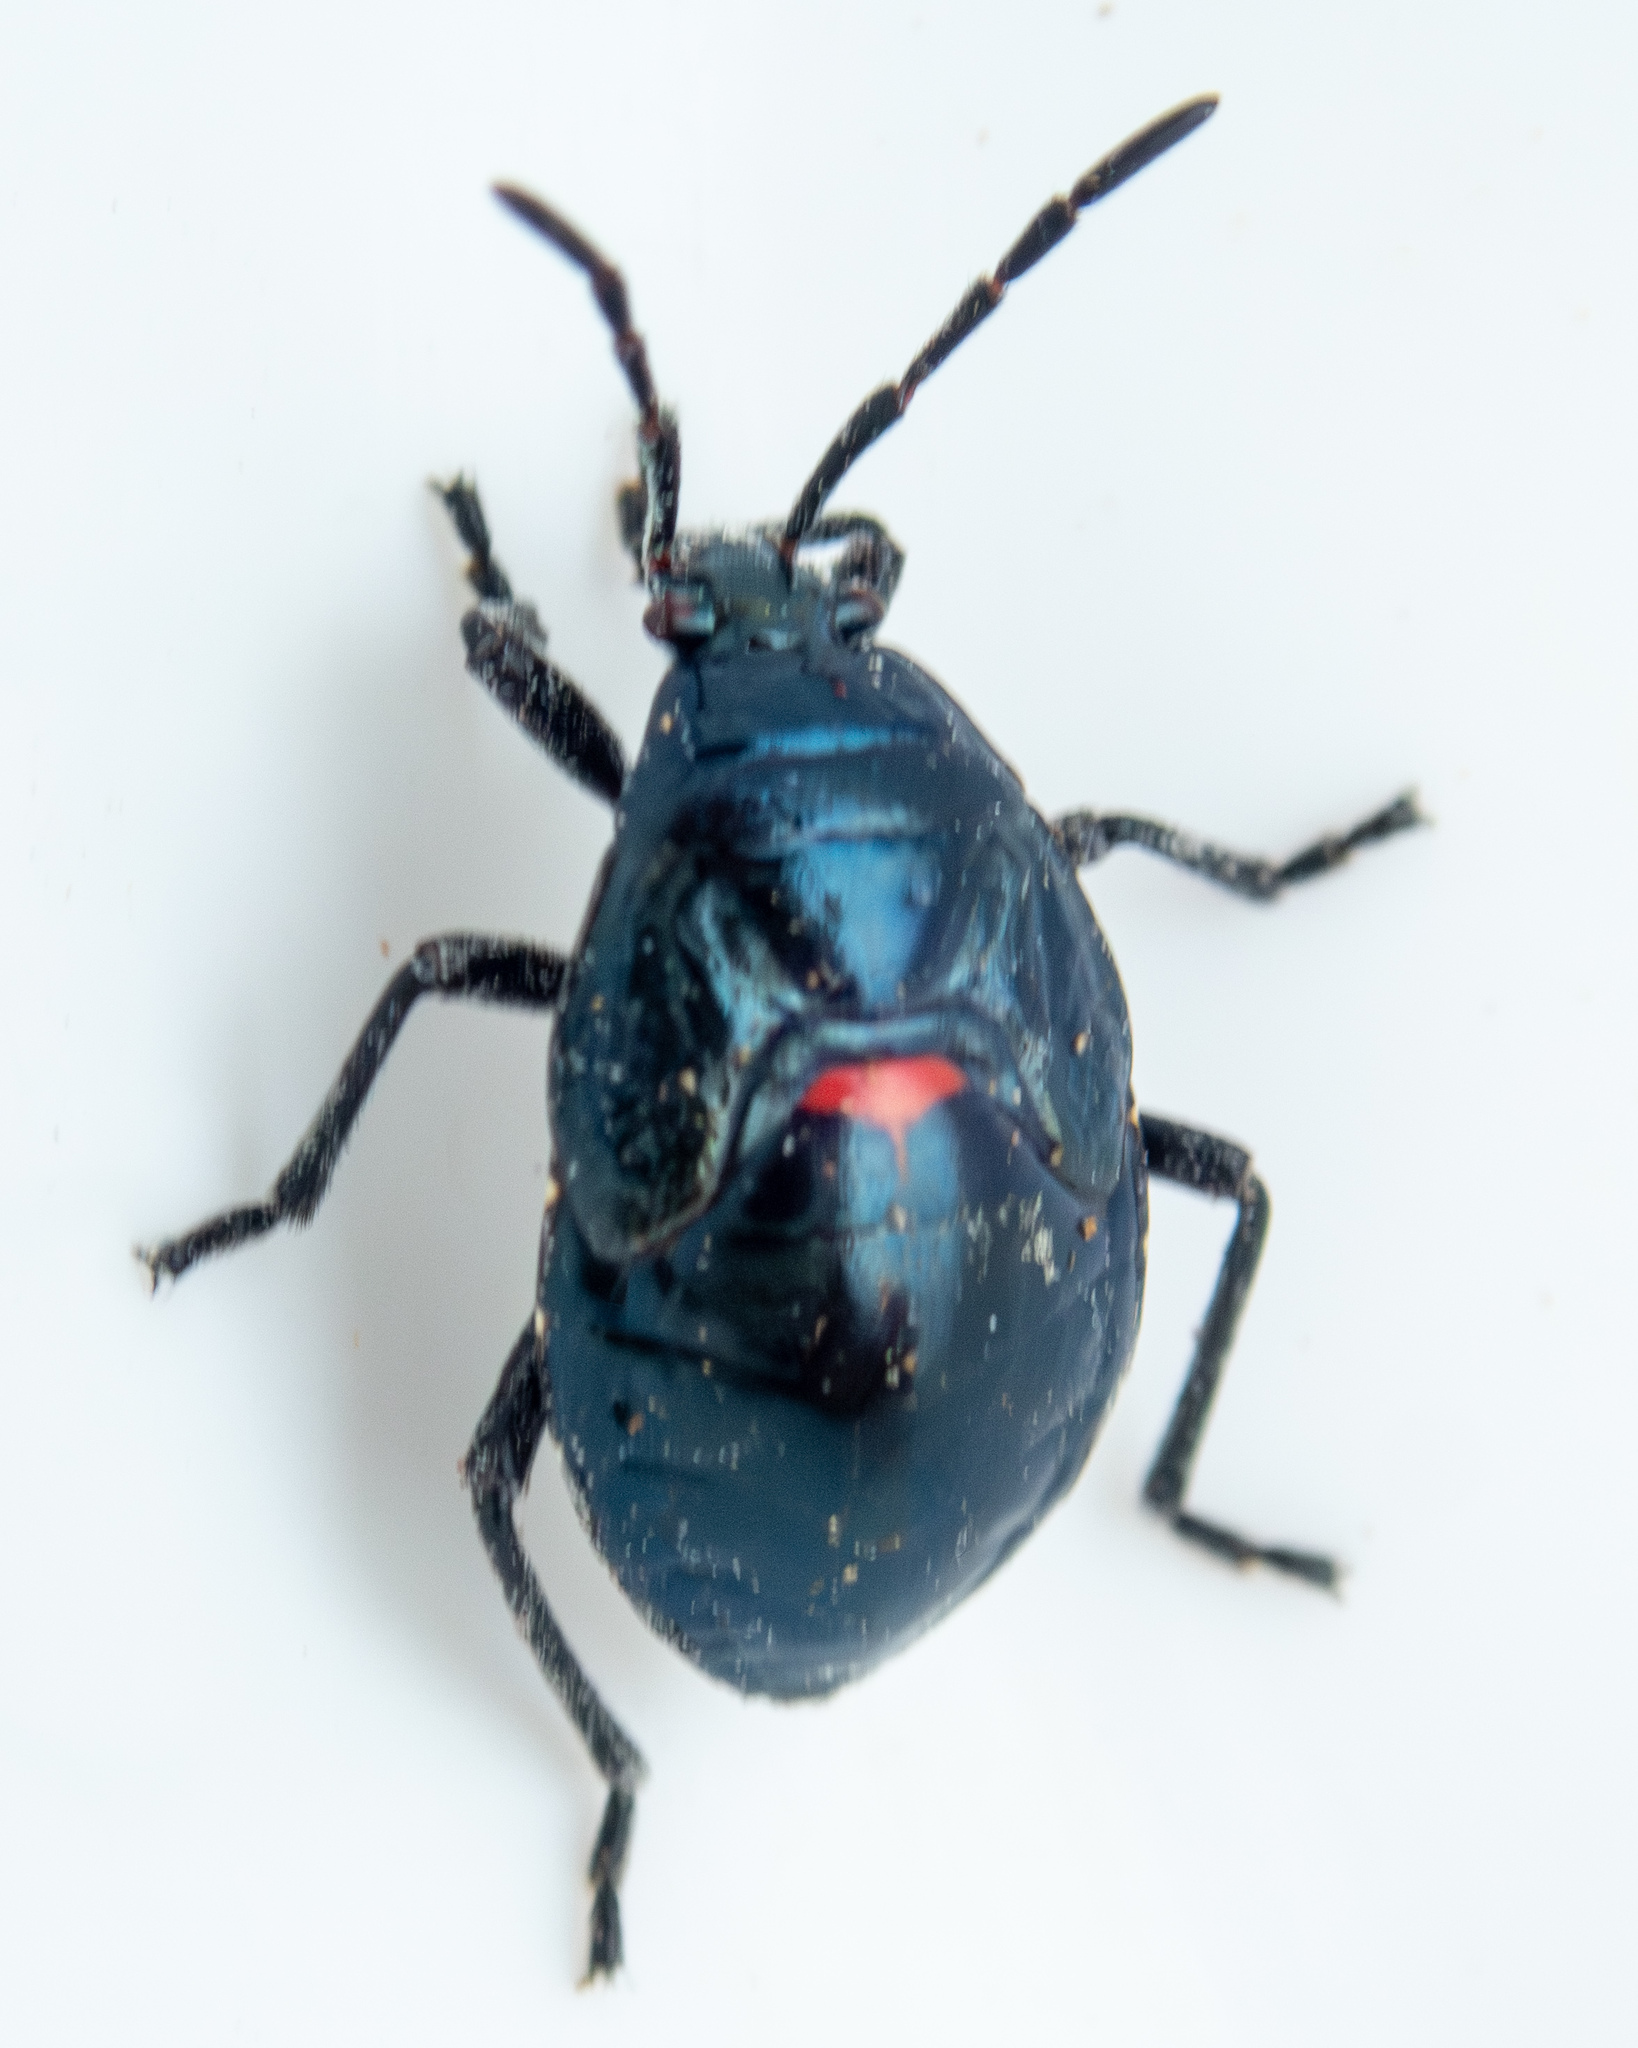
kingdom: Animalia
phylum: Arthropoda
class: Insecta
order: Hemiptera
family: Largidae
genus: Largus
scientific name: Largus californicus
